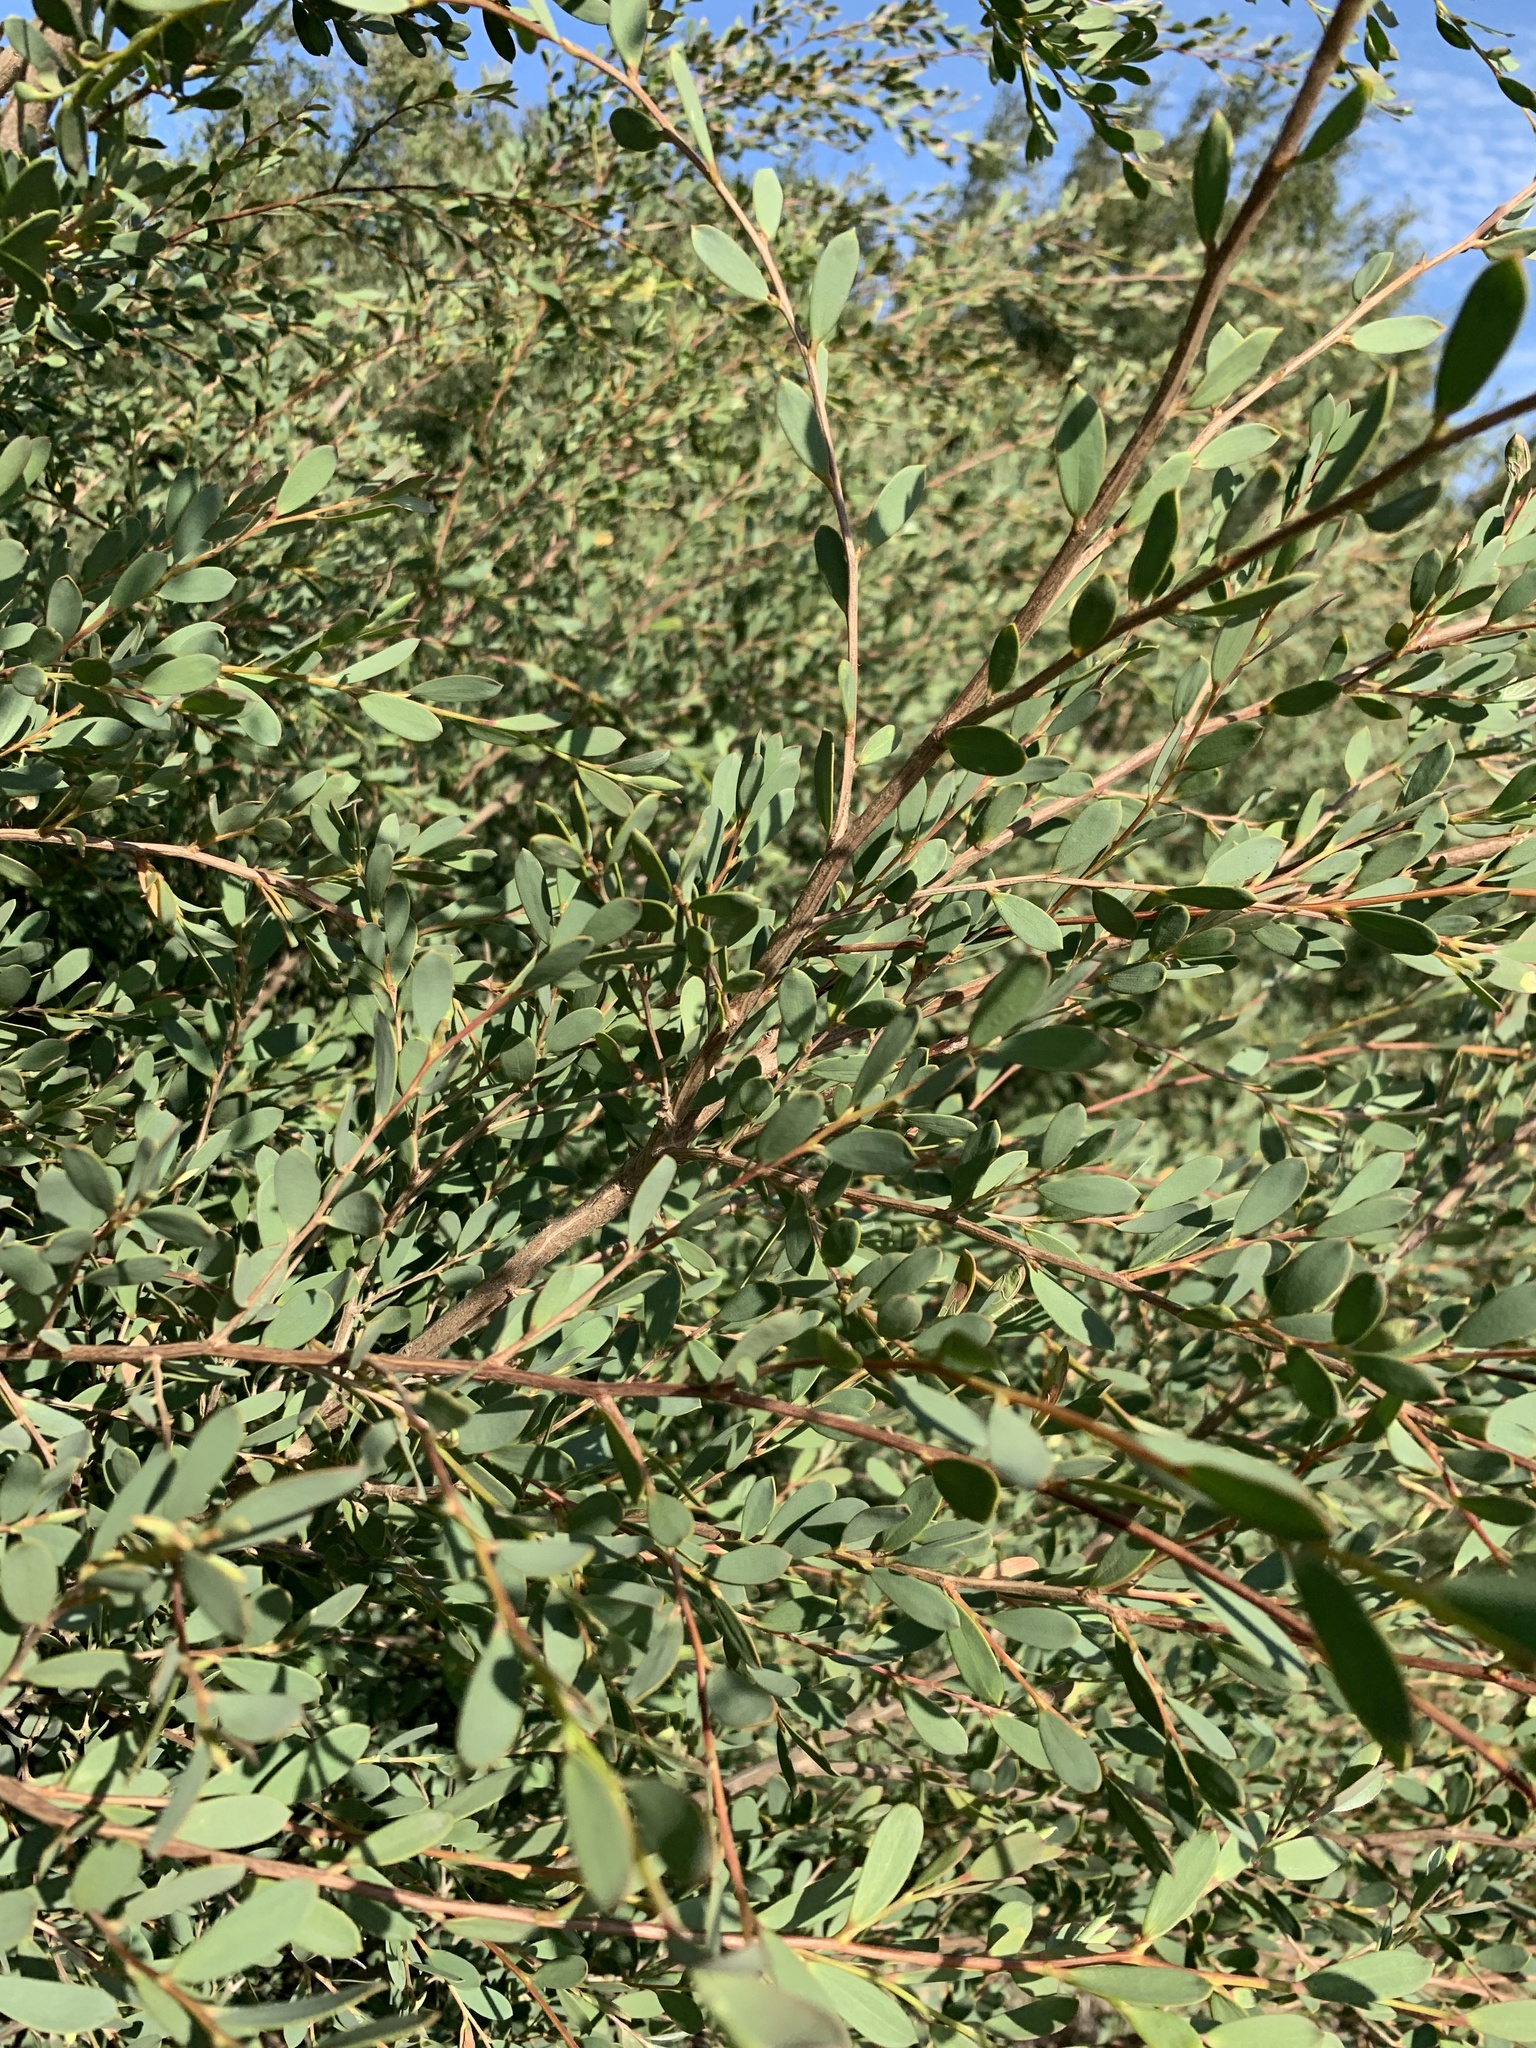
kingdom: Plantae
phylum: Tracheophyta
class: Magnoliopsida
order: Myrtales
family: Myrtaceae
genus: Leptospermum
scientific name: Leptospermum laevigatum
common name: Australian teatree
